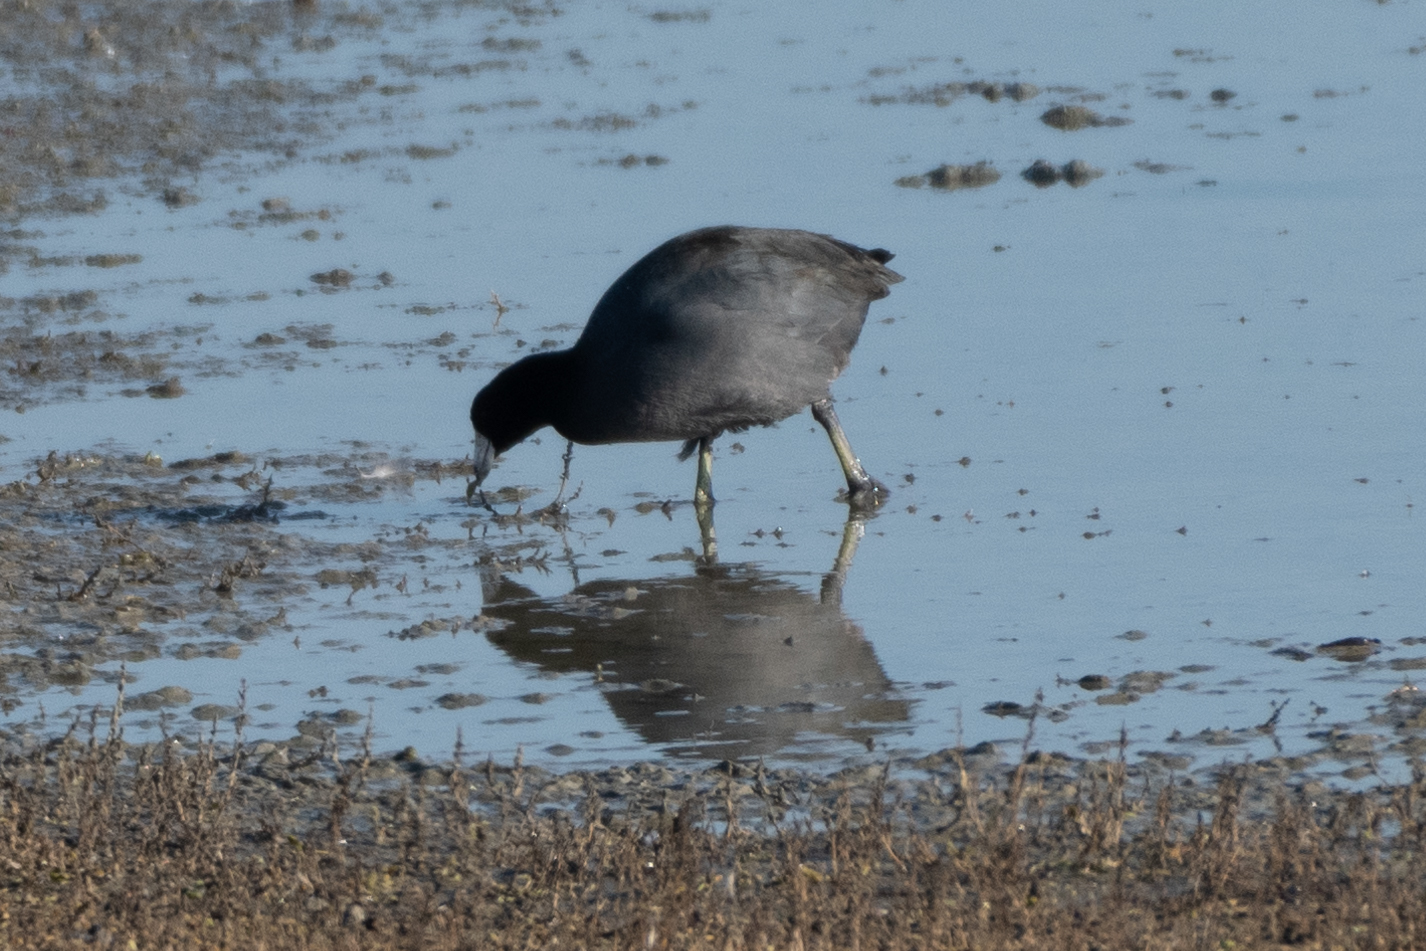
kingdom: Animalia
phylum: Chordata
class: Aves
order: Gruiformes
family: Rallidae
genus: Fulica
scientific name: Fulica americana
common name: American coot
